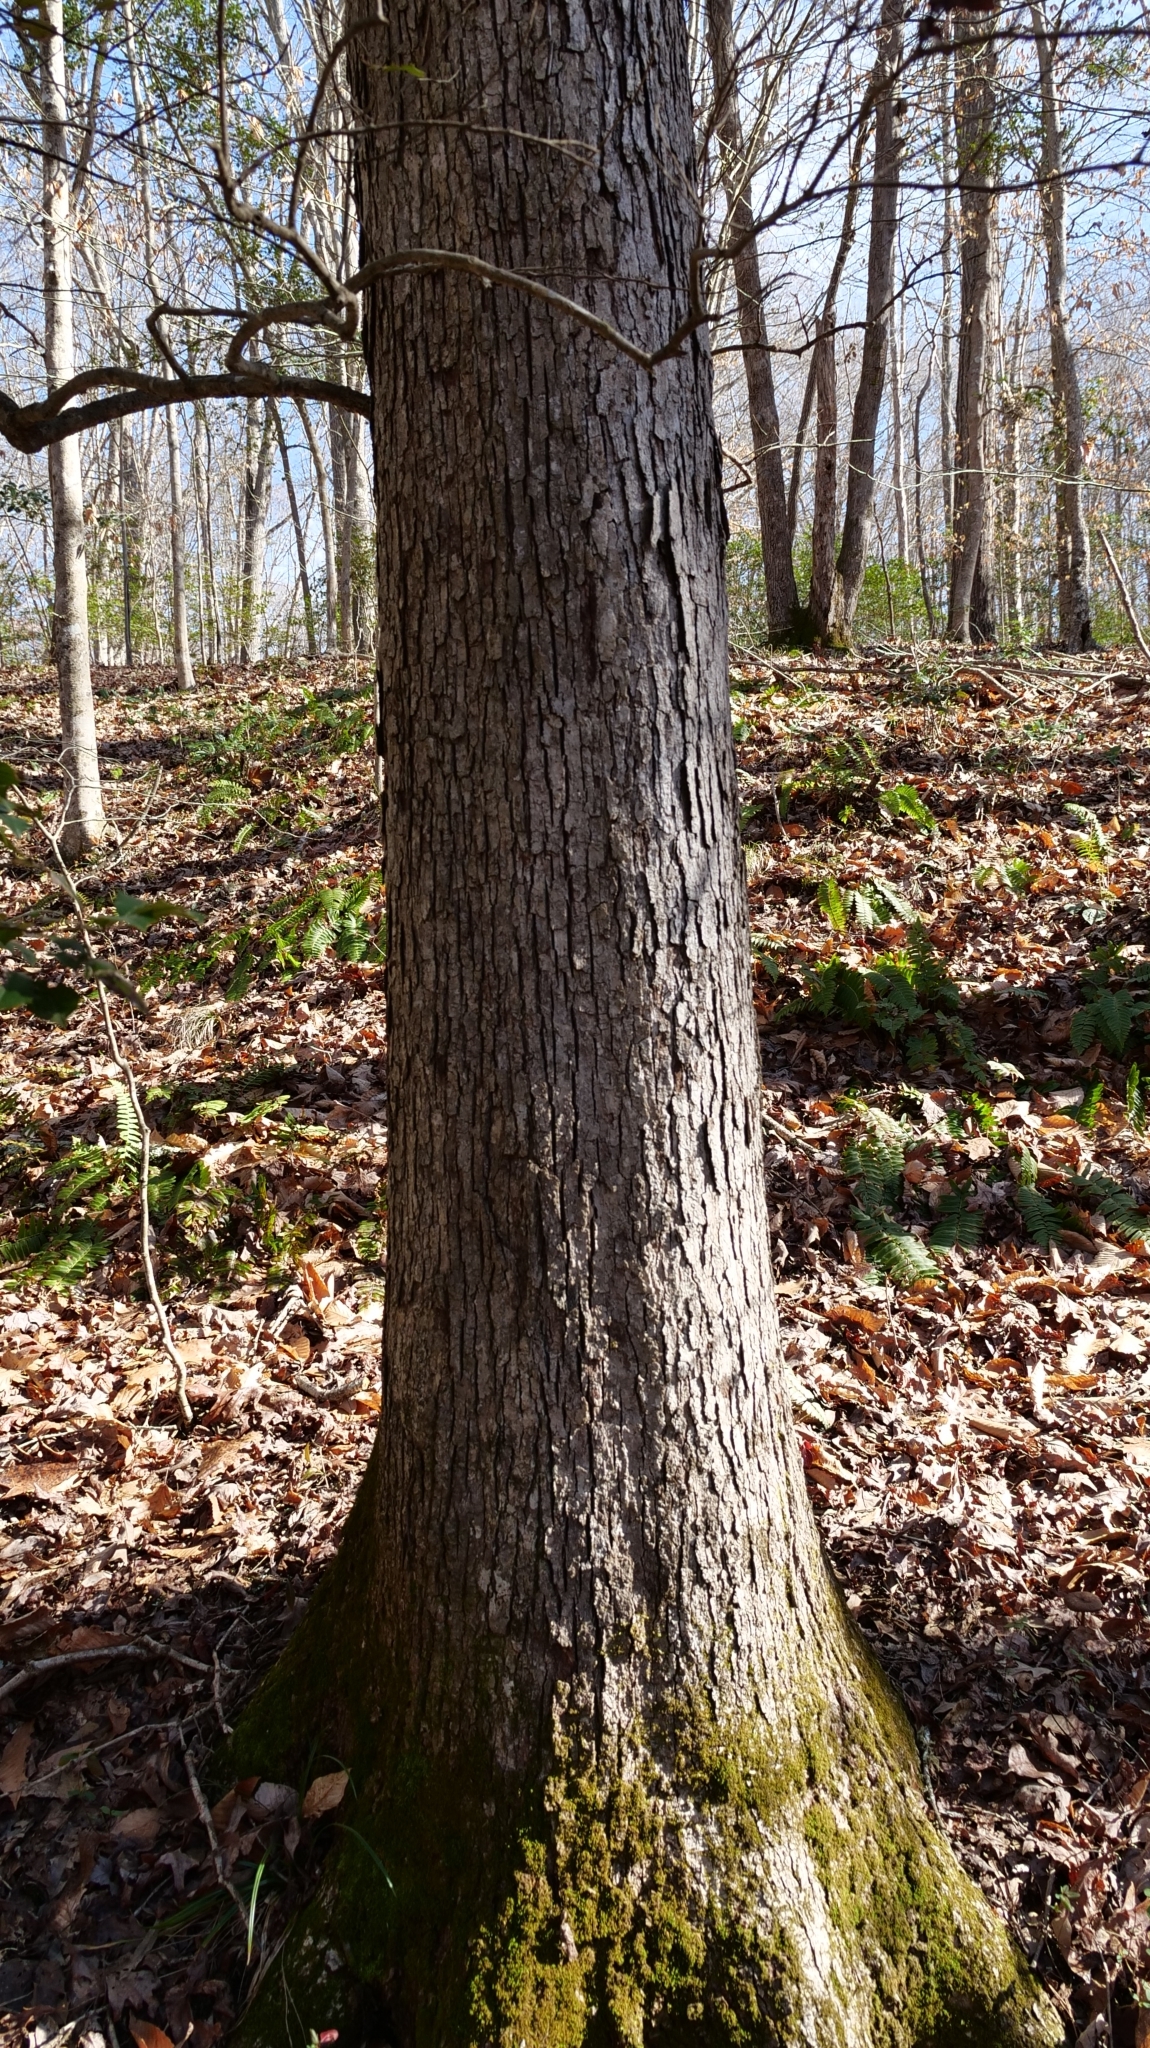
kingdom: Plantae
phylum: Tracheophyta
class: Magnoliopsida
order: Fagales
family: Fagaceae
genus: Quercus
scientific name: Quercus alba
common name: White oak
